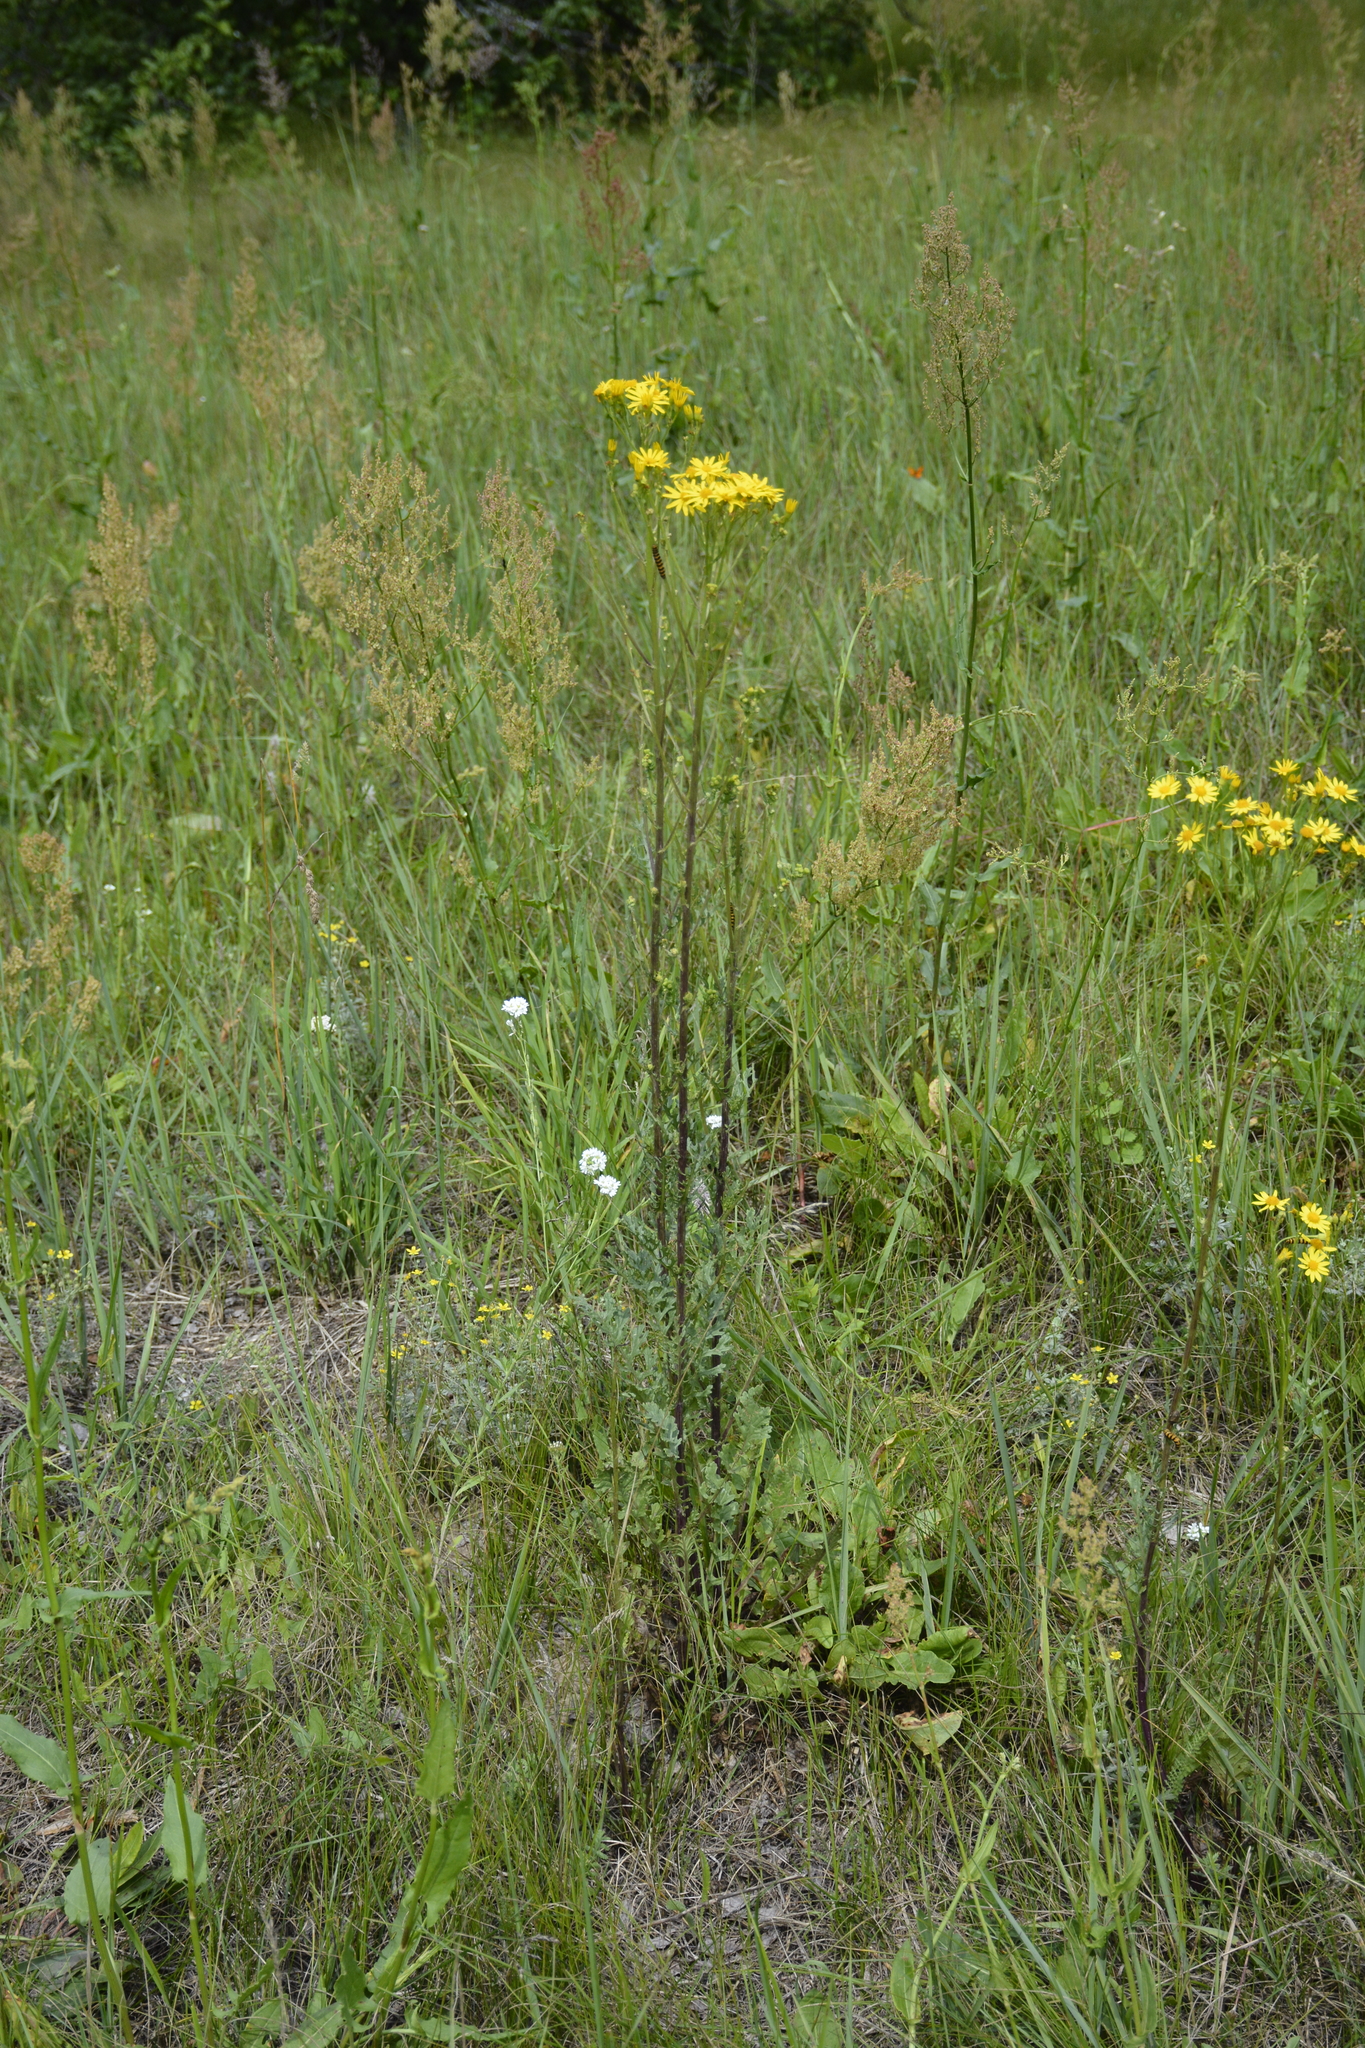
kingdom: Plantae
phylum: Tracheophyta
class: Magnoliopsida
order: Asterales
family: Asteraceae
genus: Jacobaea
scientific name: Jacobaea vulgaris
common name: Stinking willie
